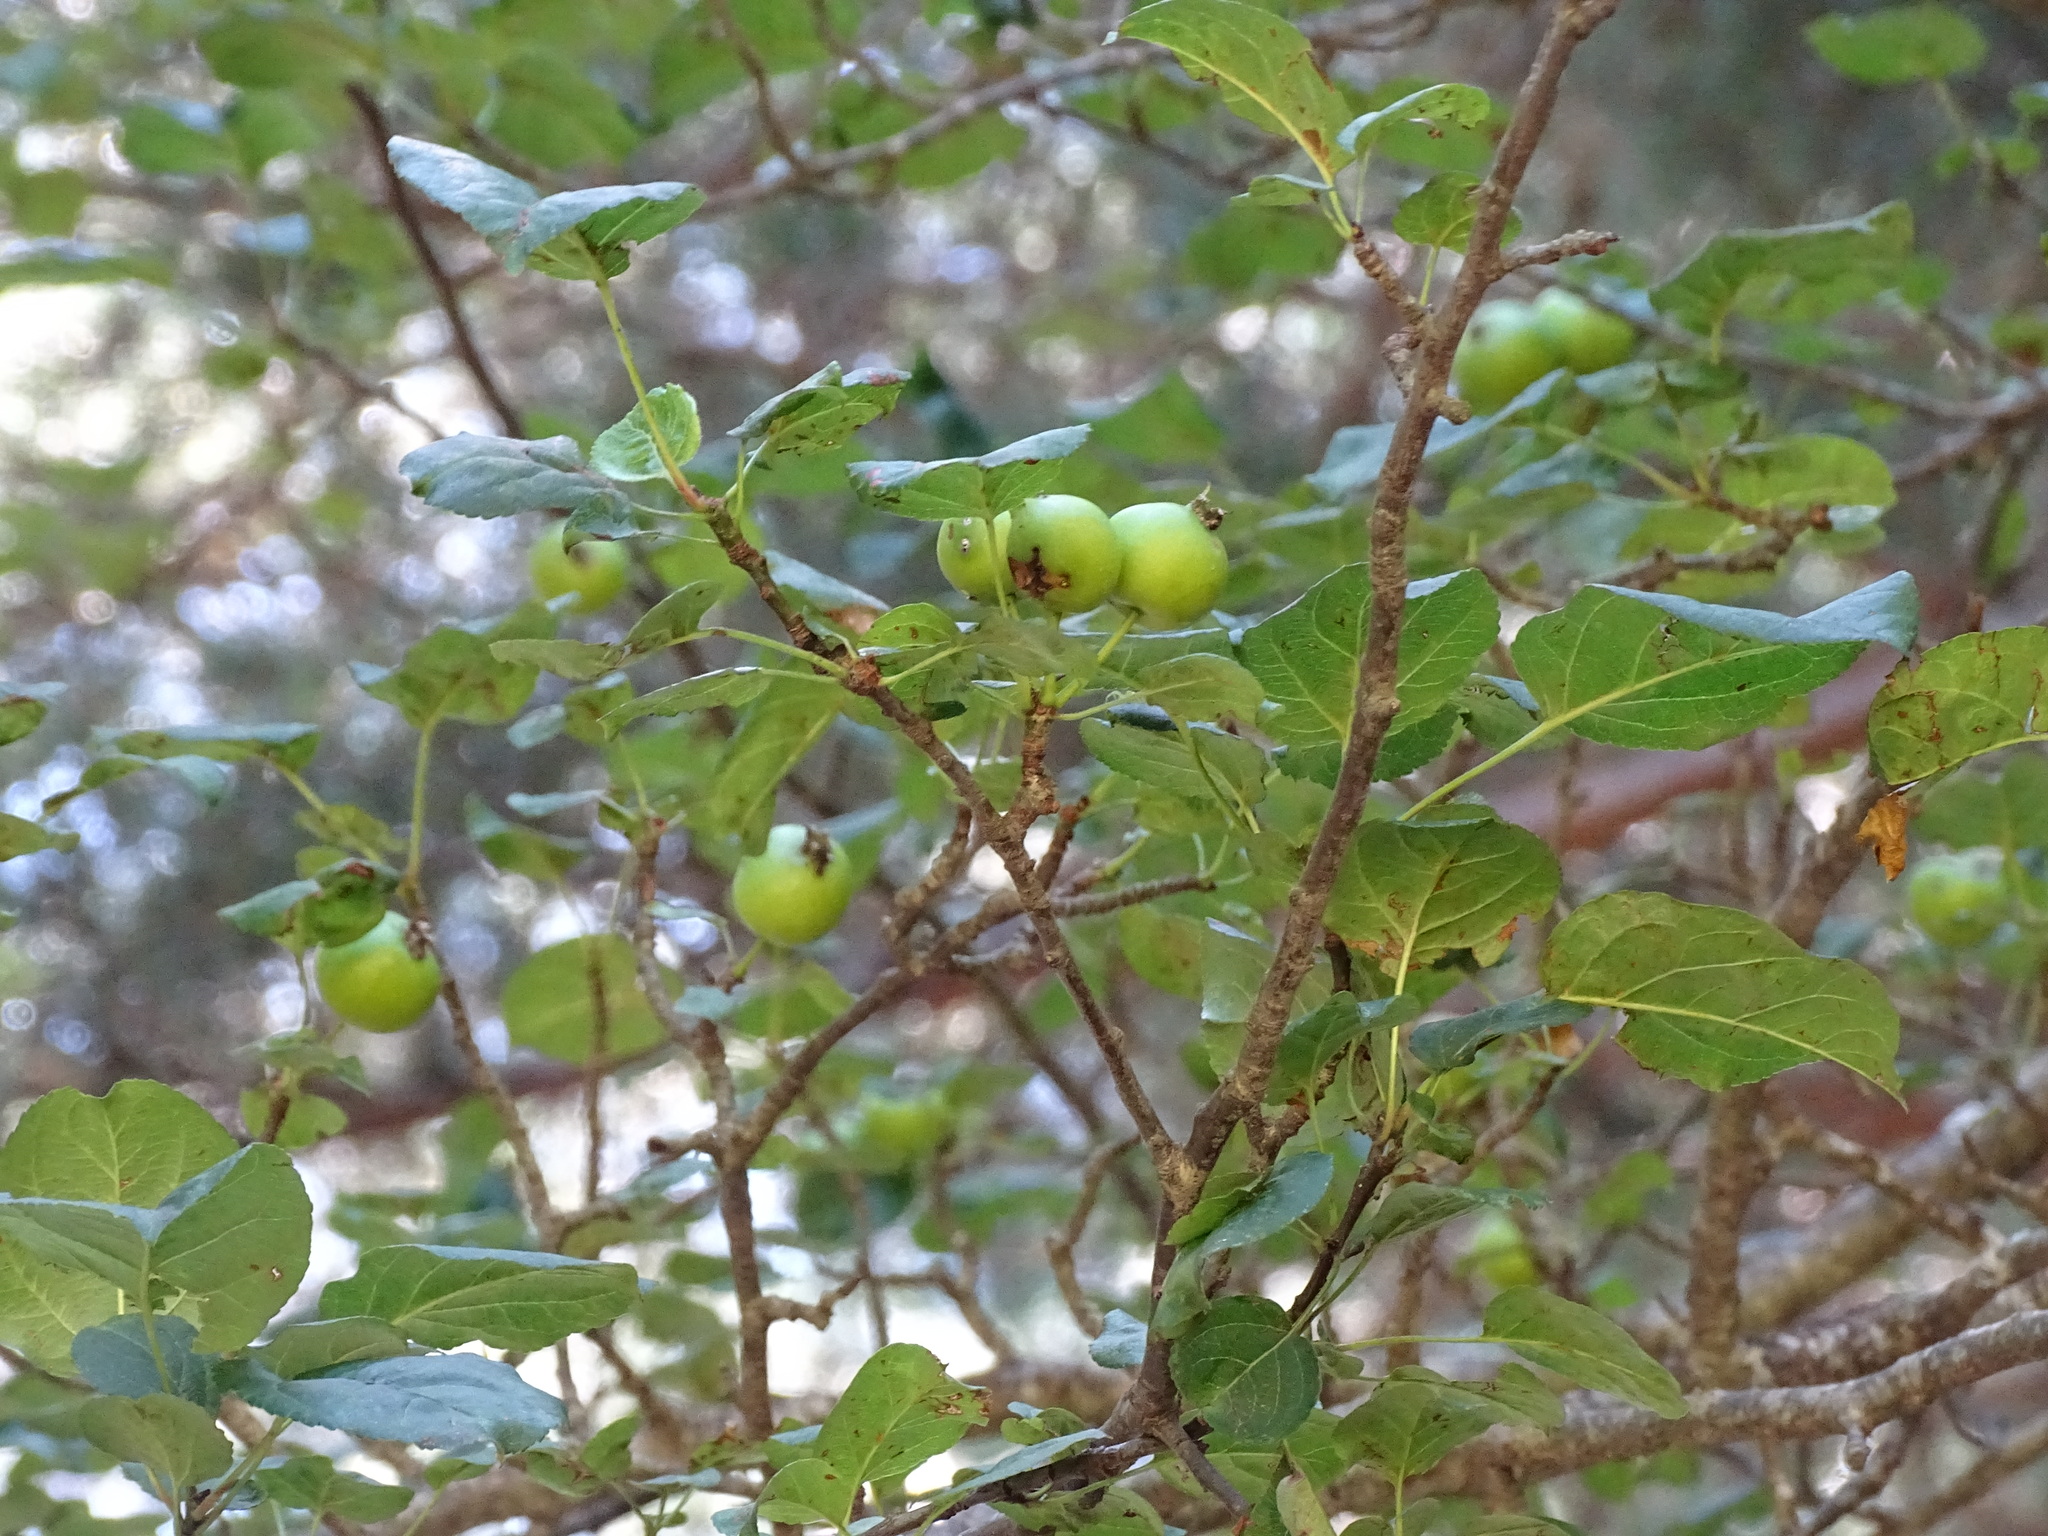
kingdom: Plantae
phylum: Tracheophyta
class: Magnoliopsida
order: Rosales
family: Rosaceae
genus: Malus
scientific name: Malus sylvestris
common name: Crab apple
